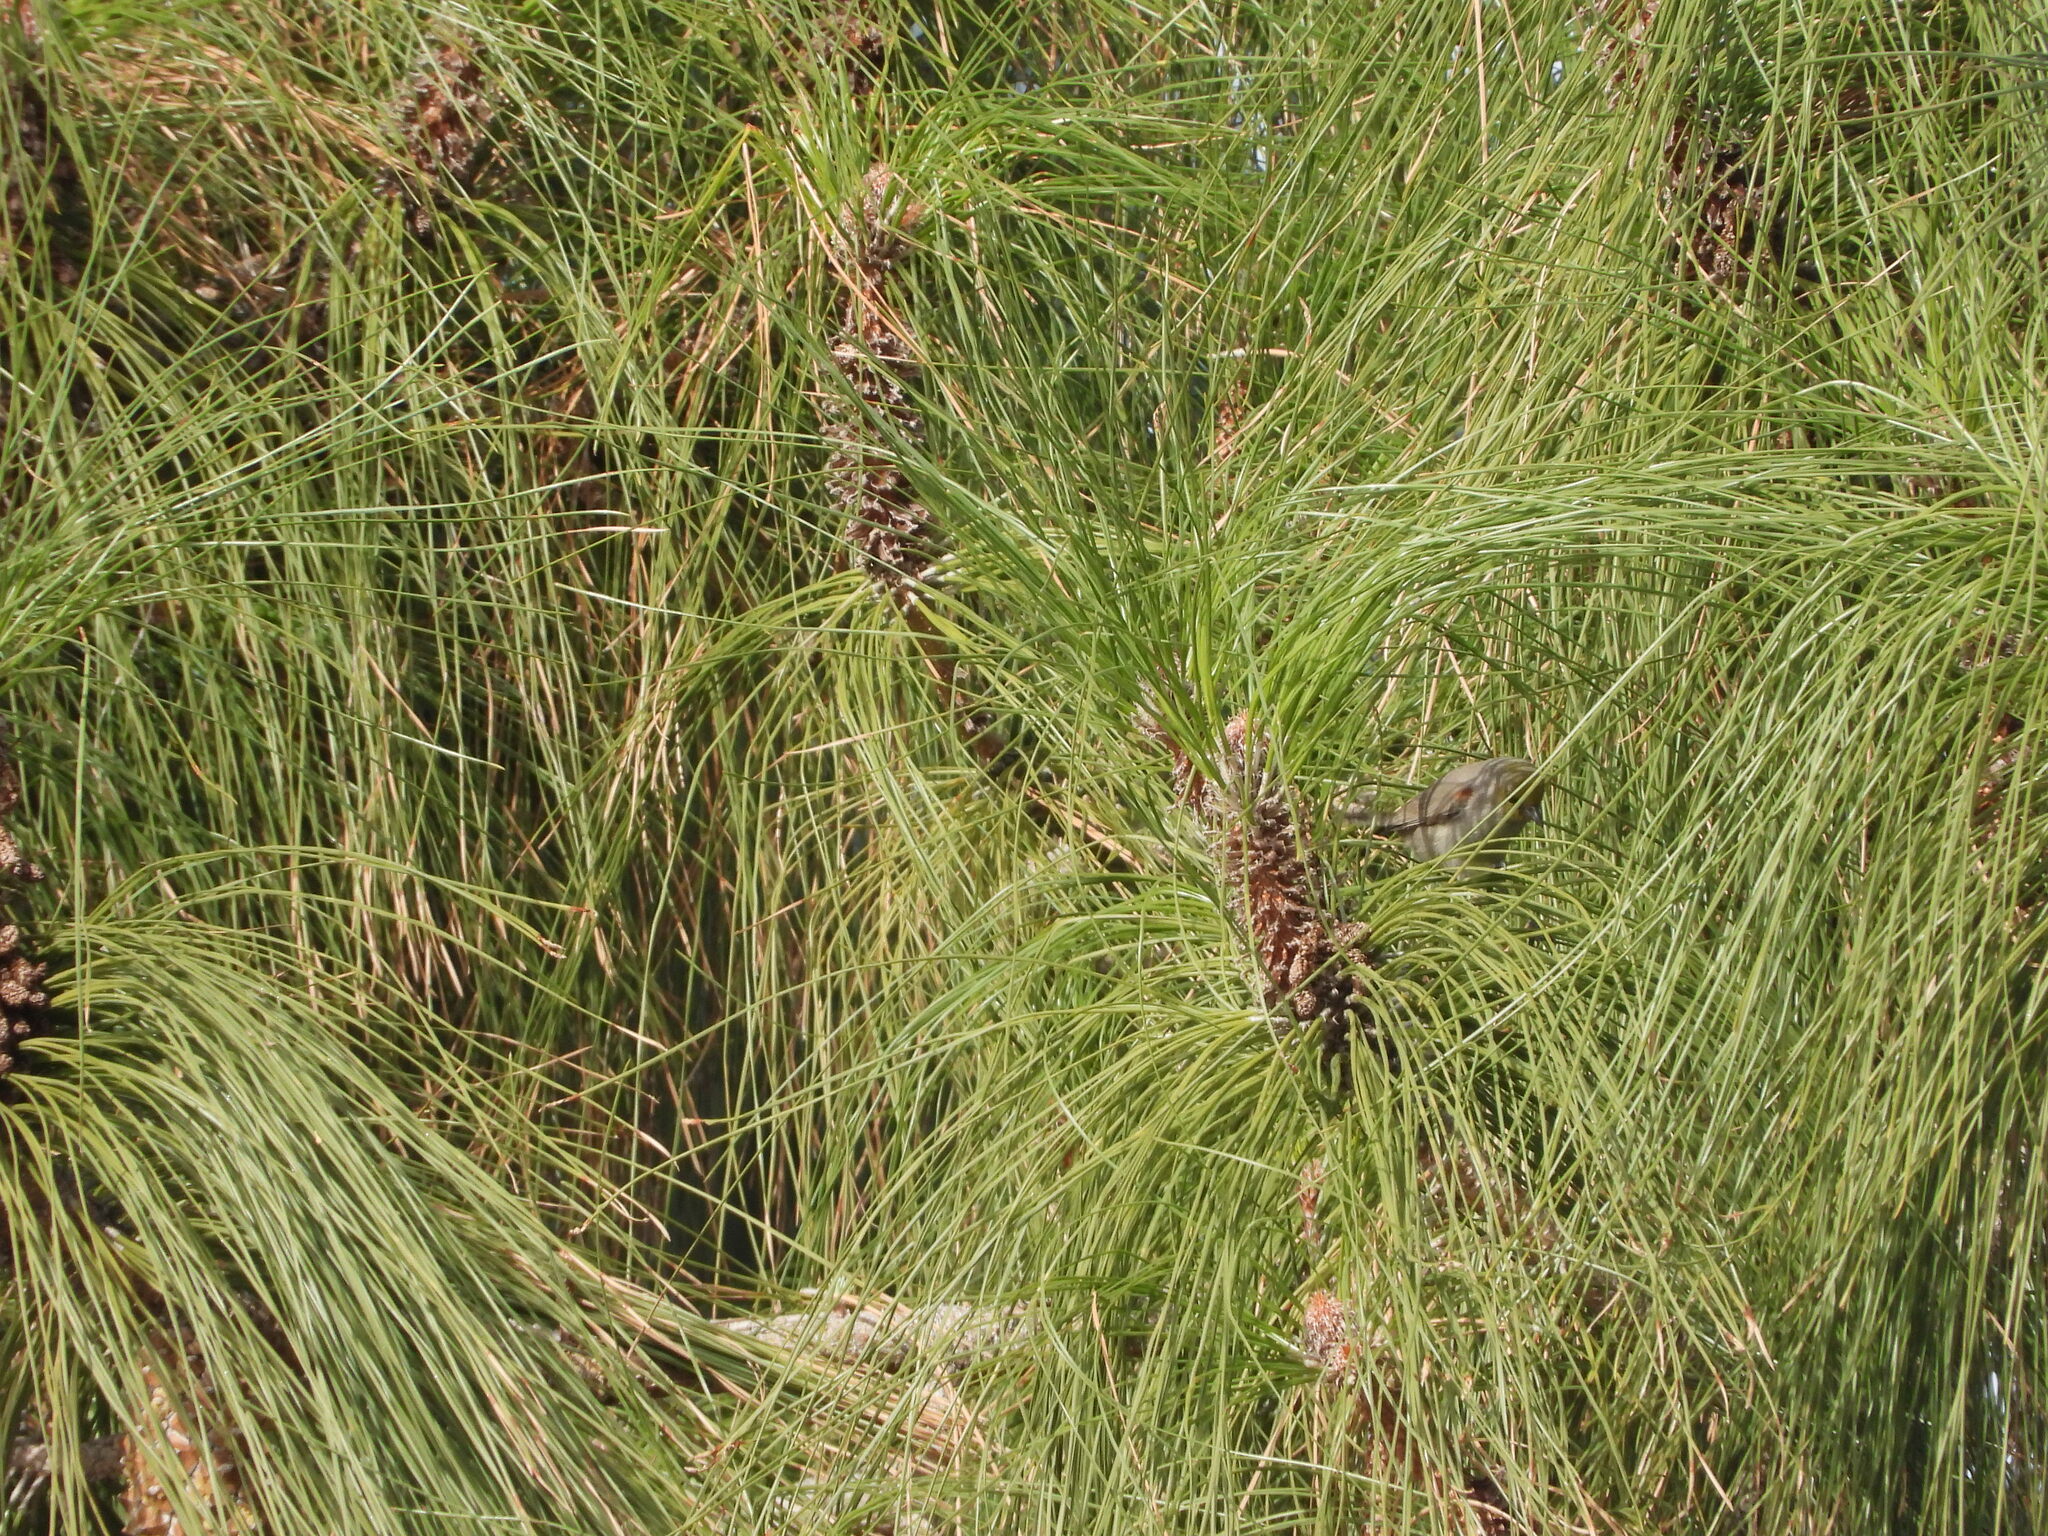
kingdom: Animalia
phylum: Chordata
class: Aves
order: Passeriformes
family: Remizidae
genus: Auriparus
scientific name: Auriparus flaviceps
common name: Verdin
